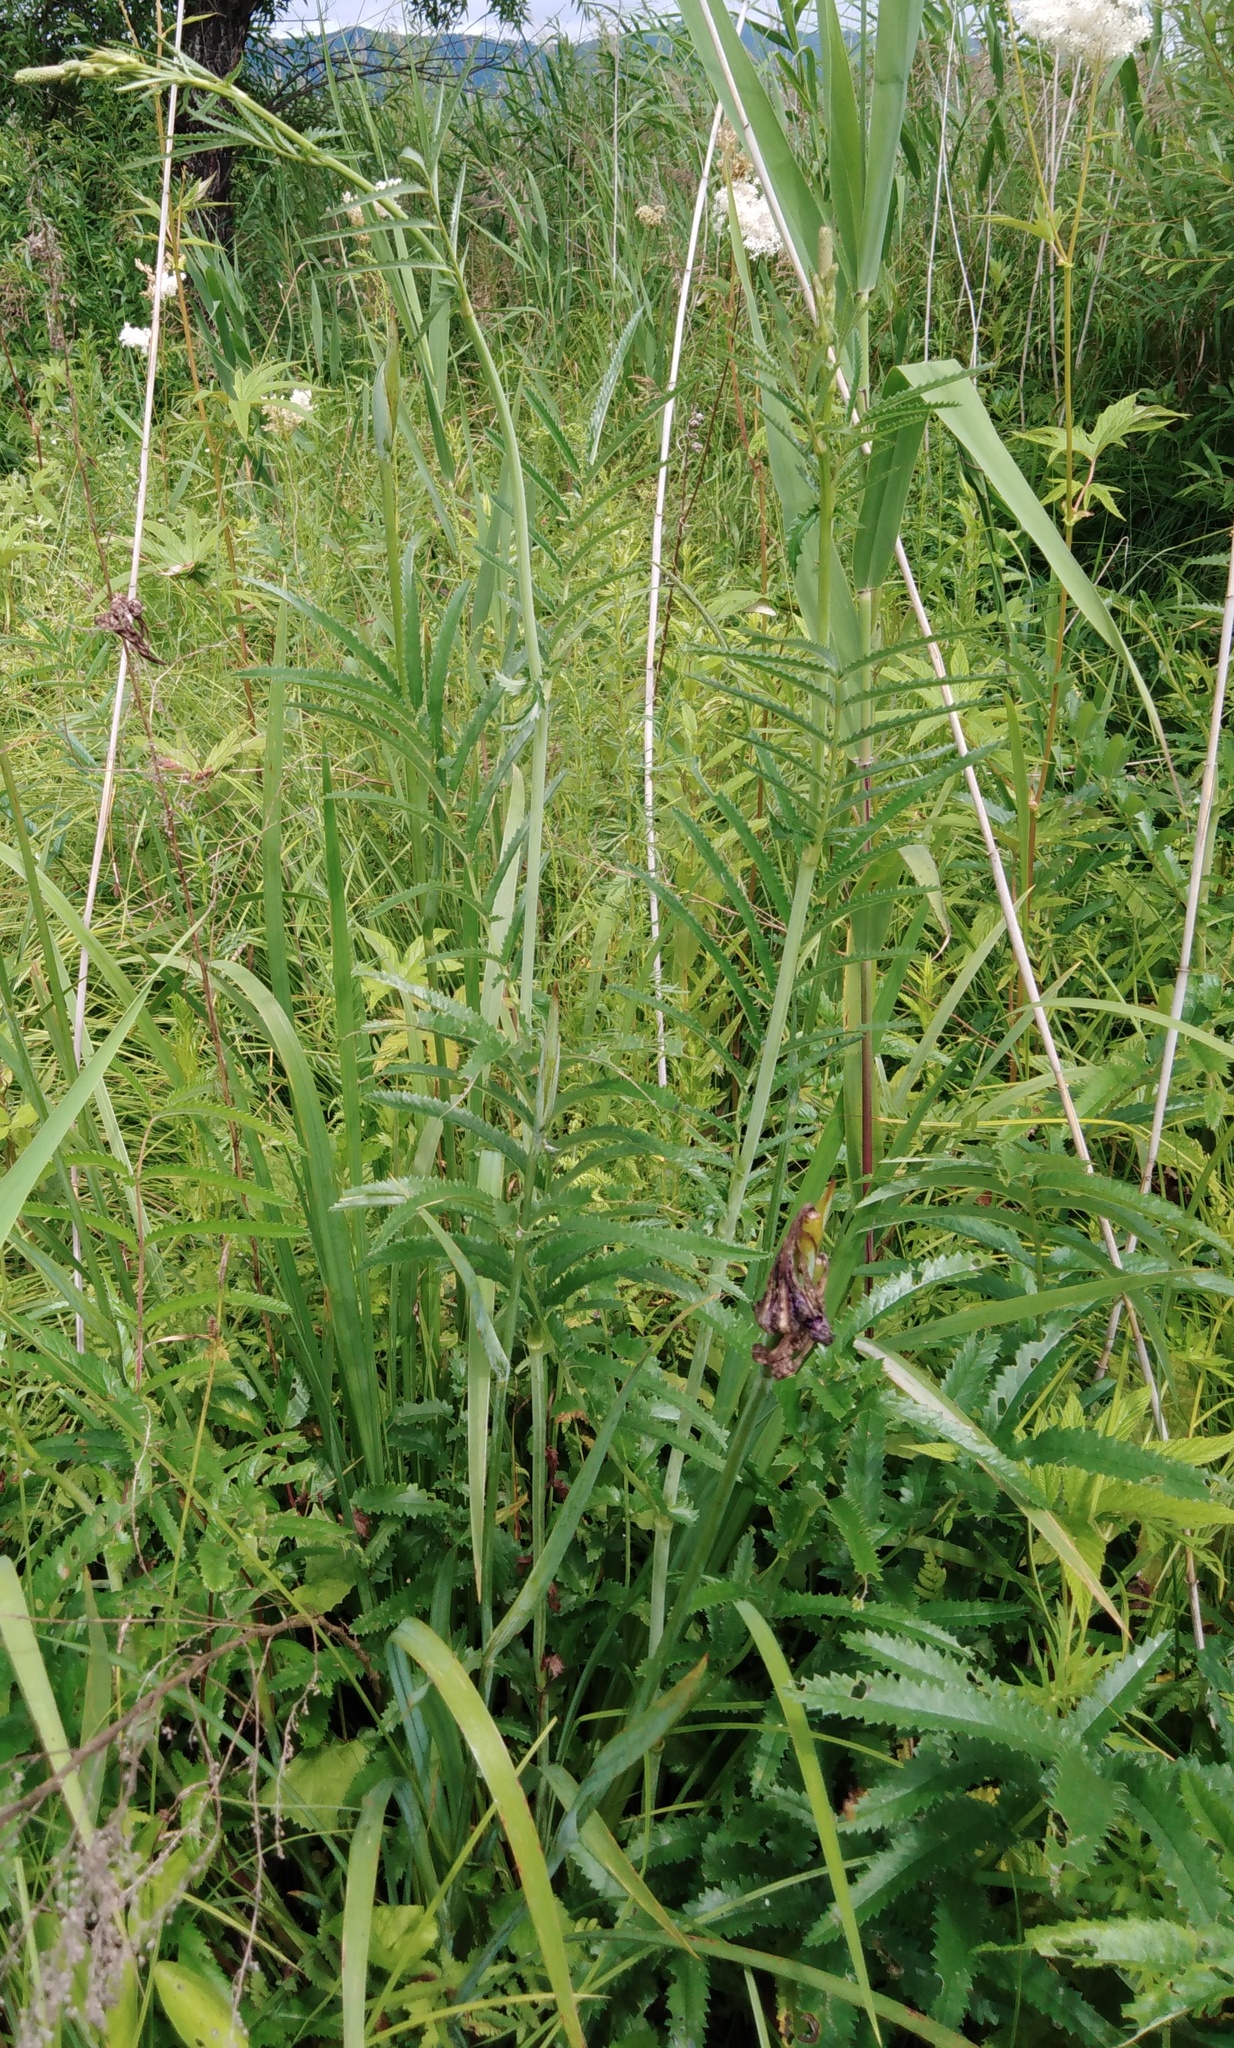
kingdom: Plantae
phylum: Tracheophyta
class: Magnoliopsida
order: Rosales
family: Rosaceae
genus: Poterium
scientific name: Poterium tenuifolium
